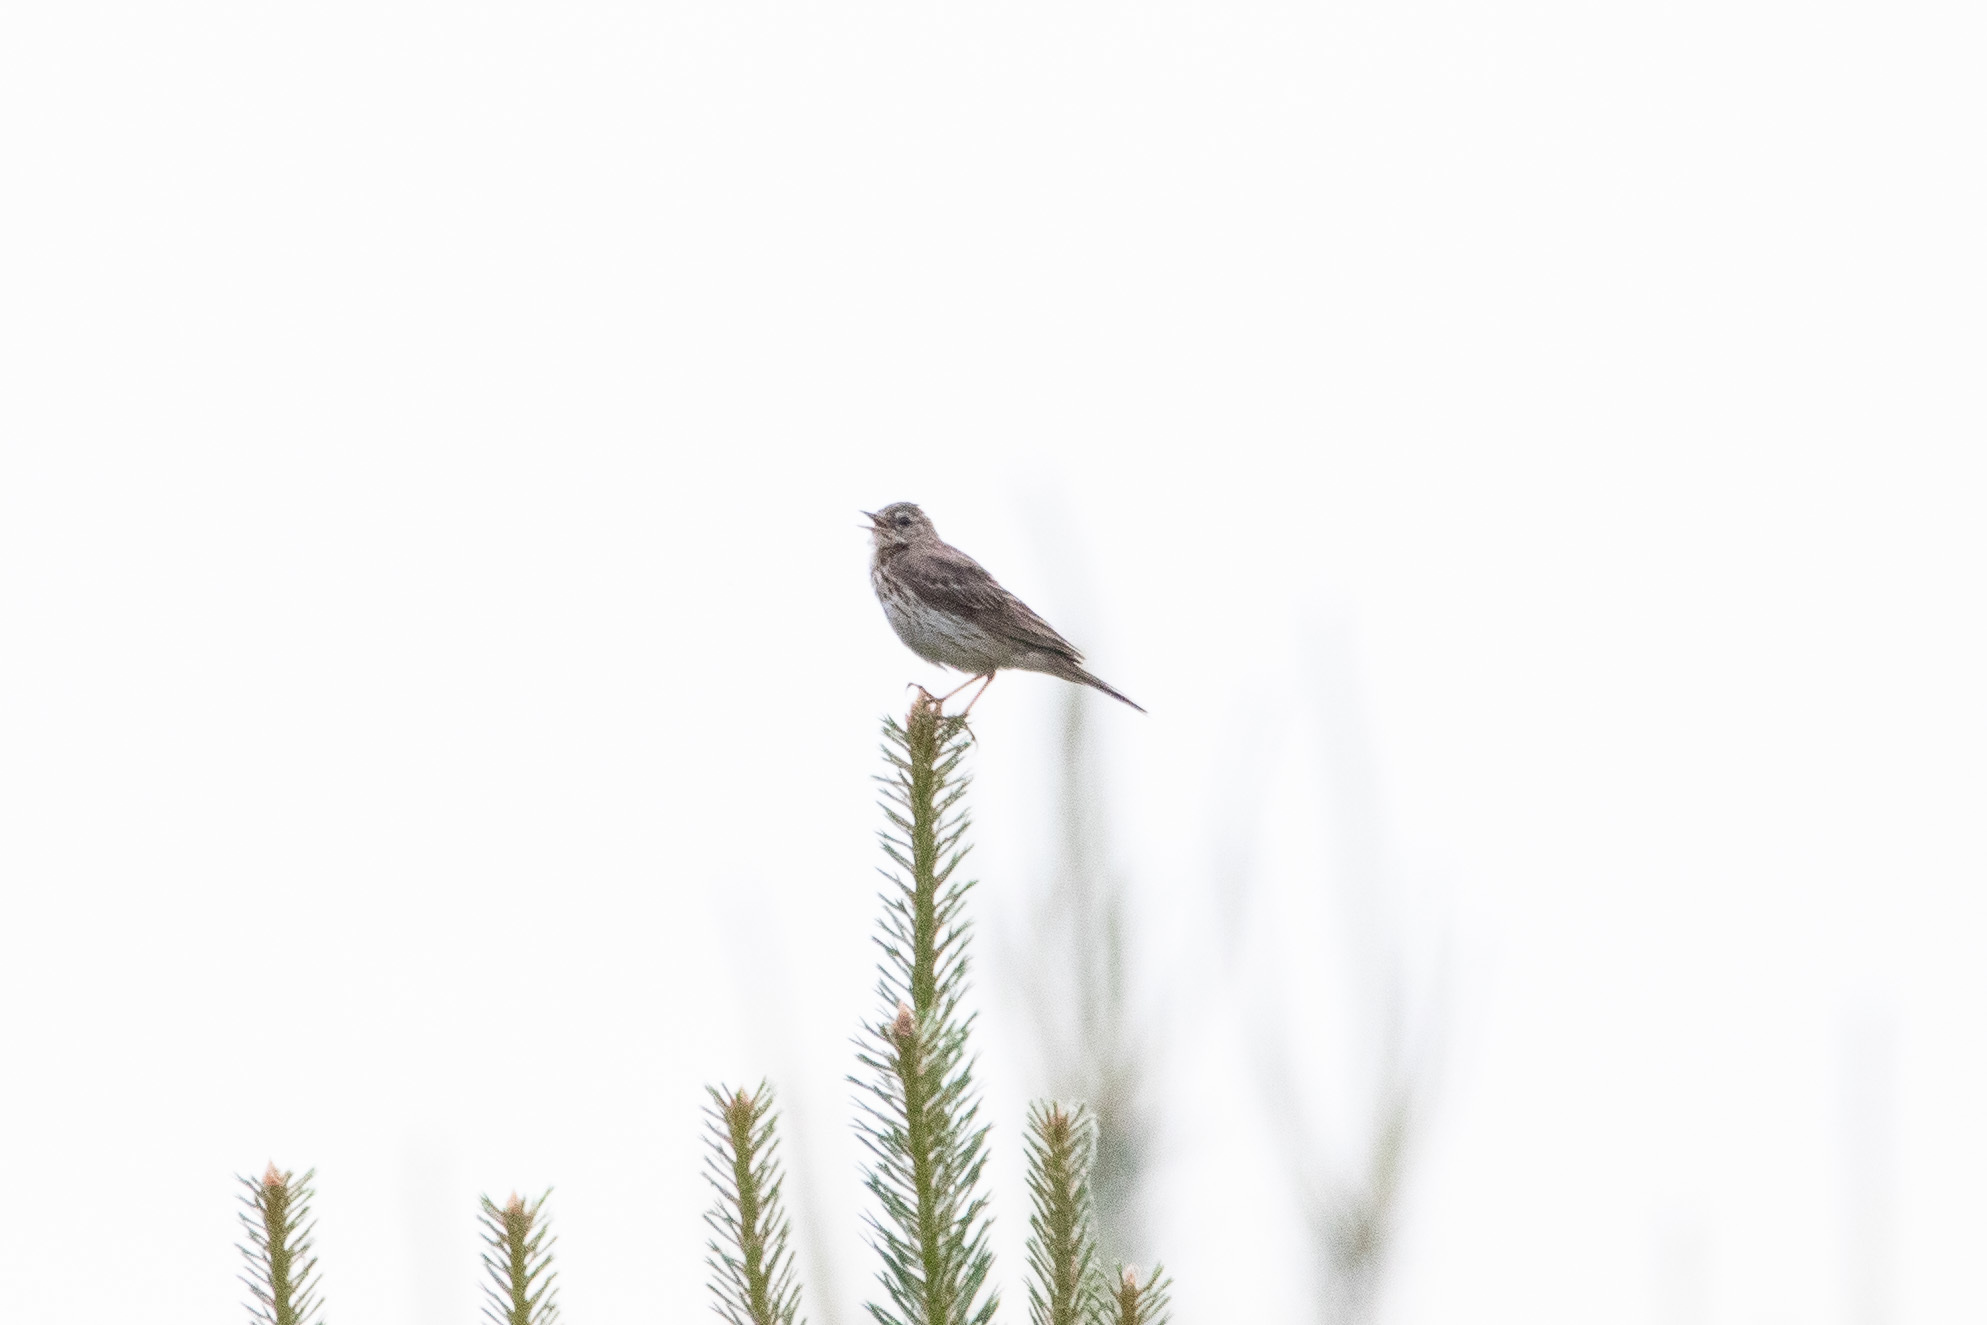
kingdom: Animalia
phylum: Chordata
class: Aves
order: Passeriformes
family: Motacillidae
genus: Anthus
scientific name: Anthus trivialis
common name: Tree pipit
